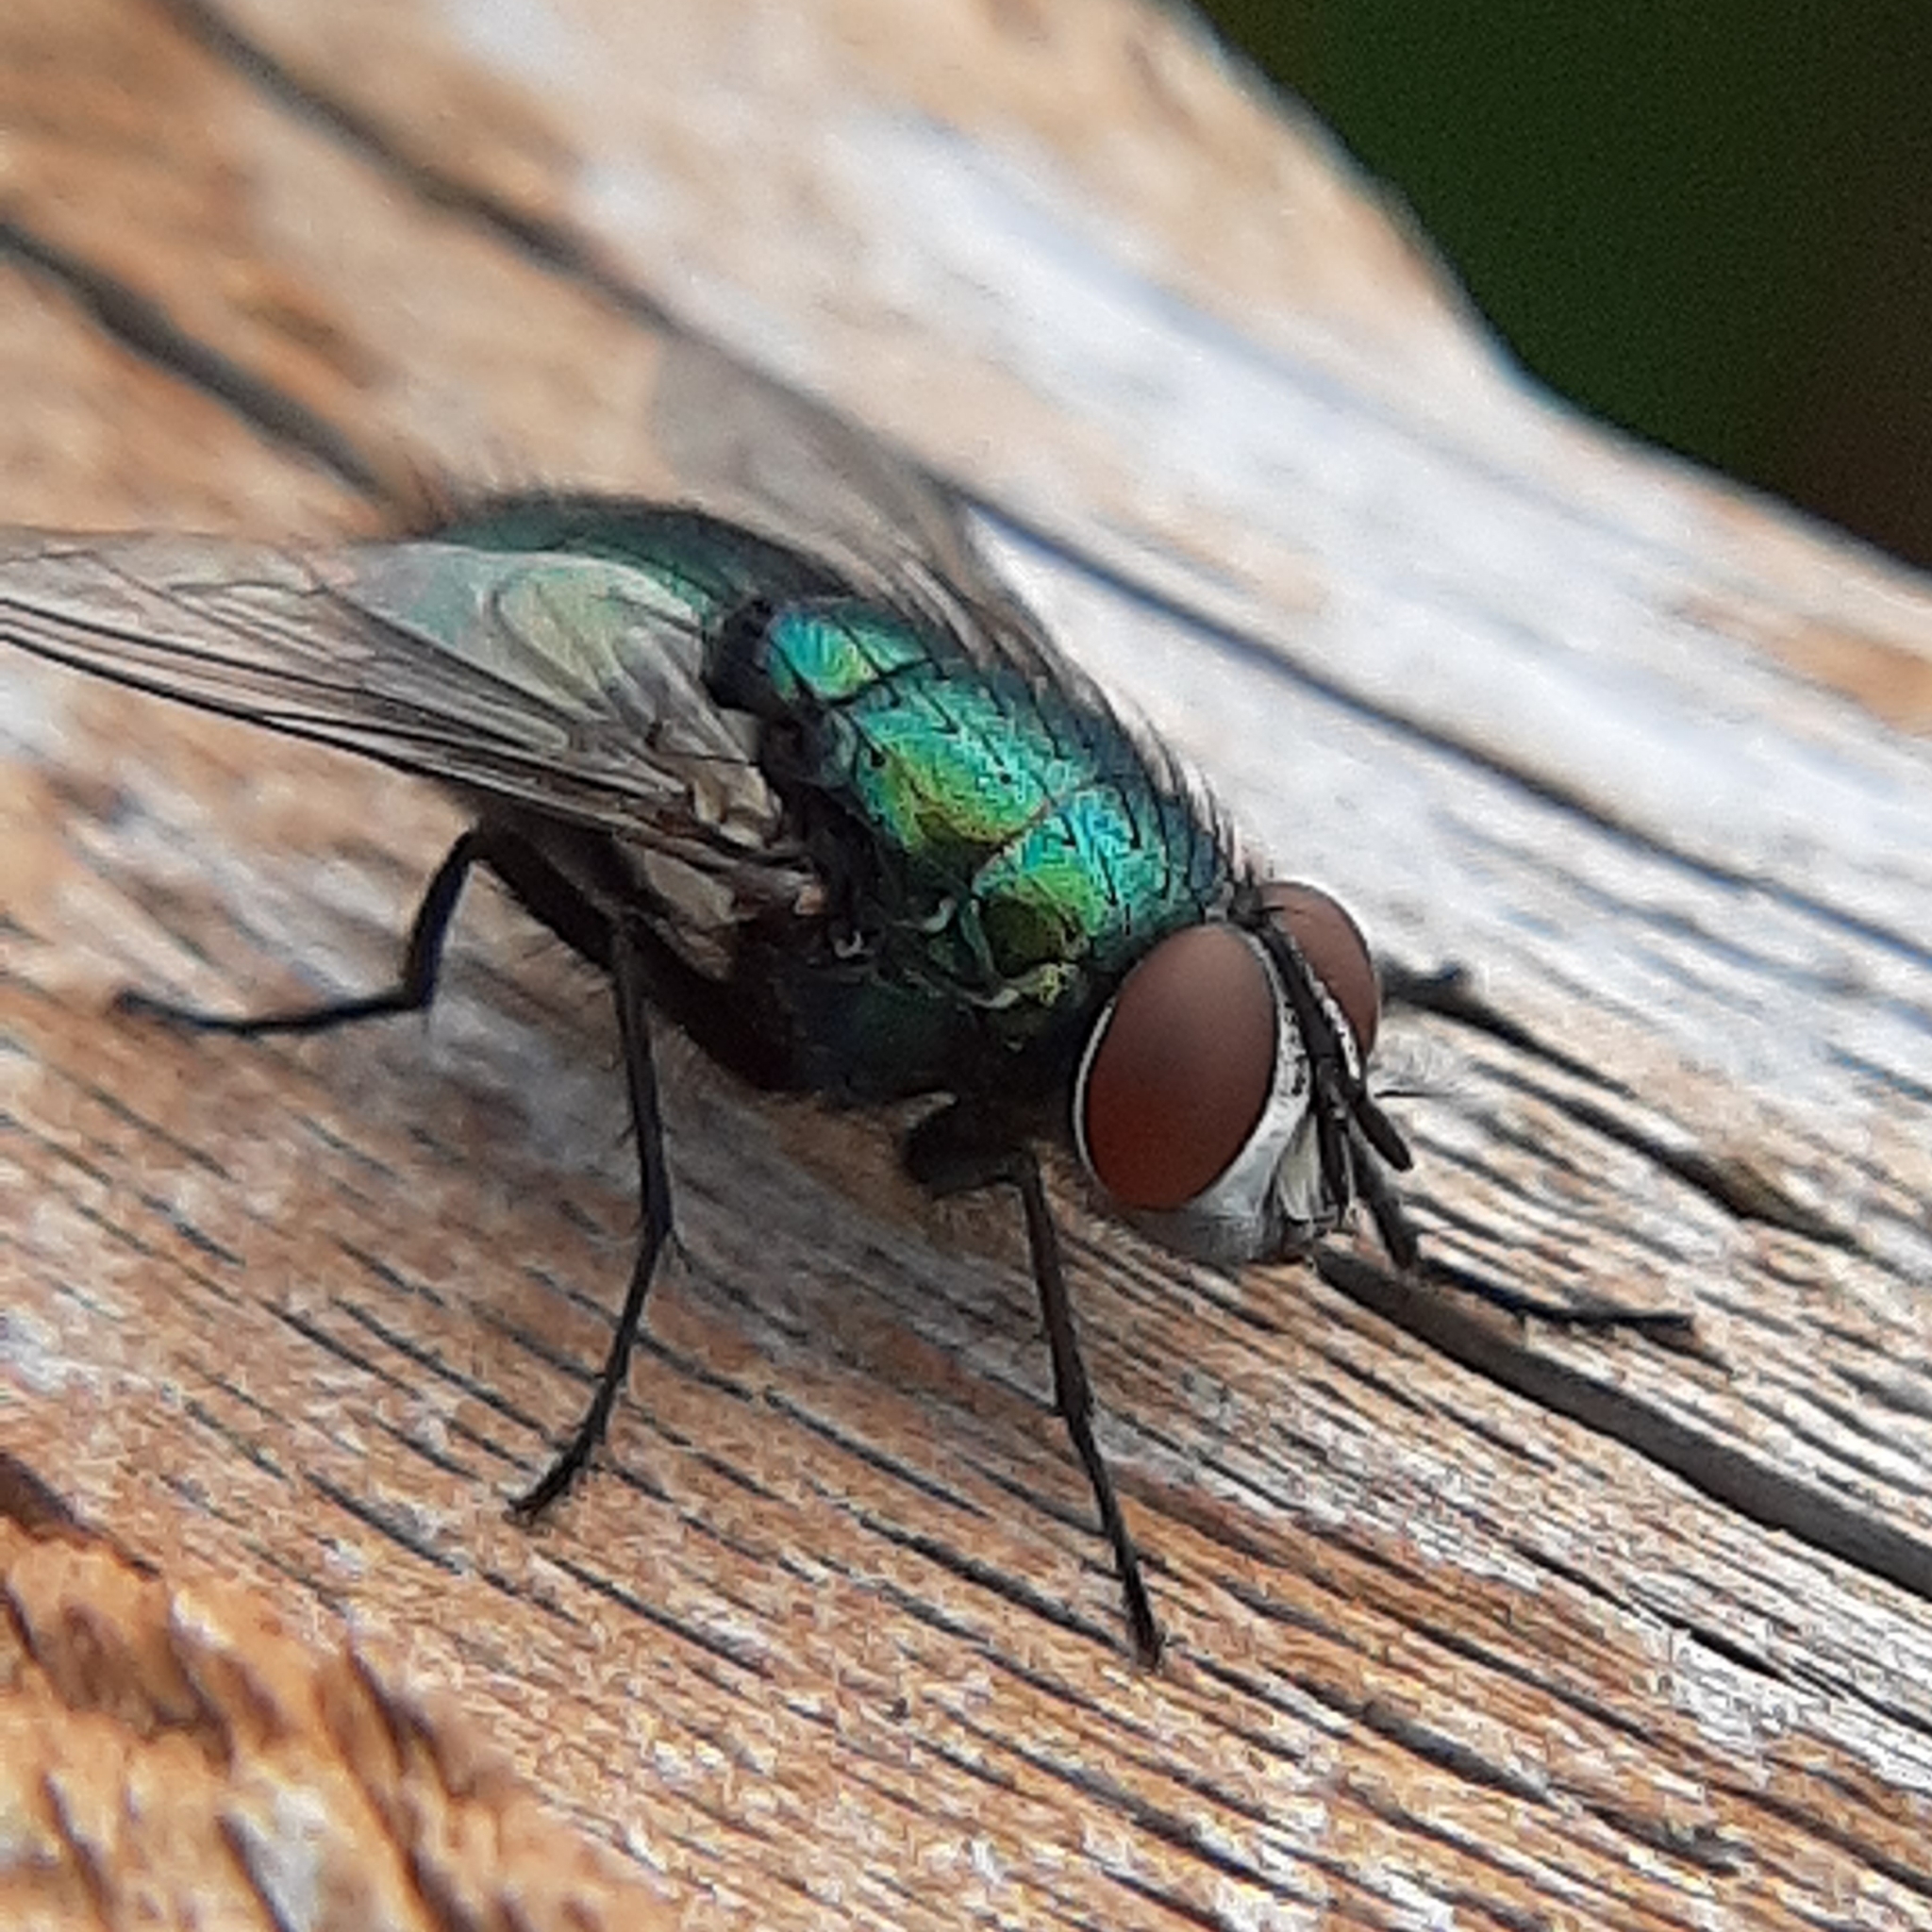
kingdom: Animalia
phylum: Arthropoda
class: Insecta
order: Diptera
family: Calliphoridae
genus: Lucilia
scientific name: Lucilia sericata
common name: Blow fly
